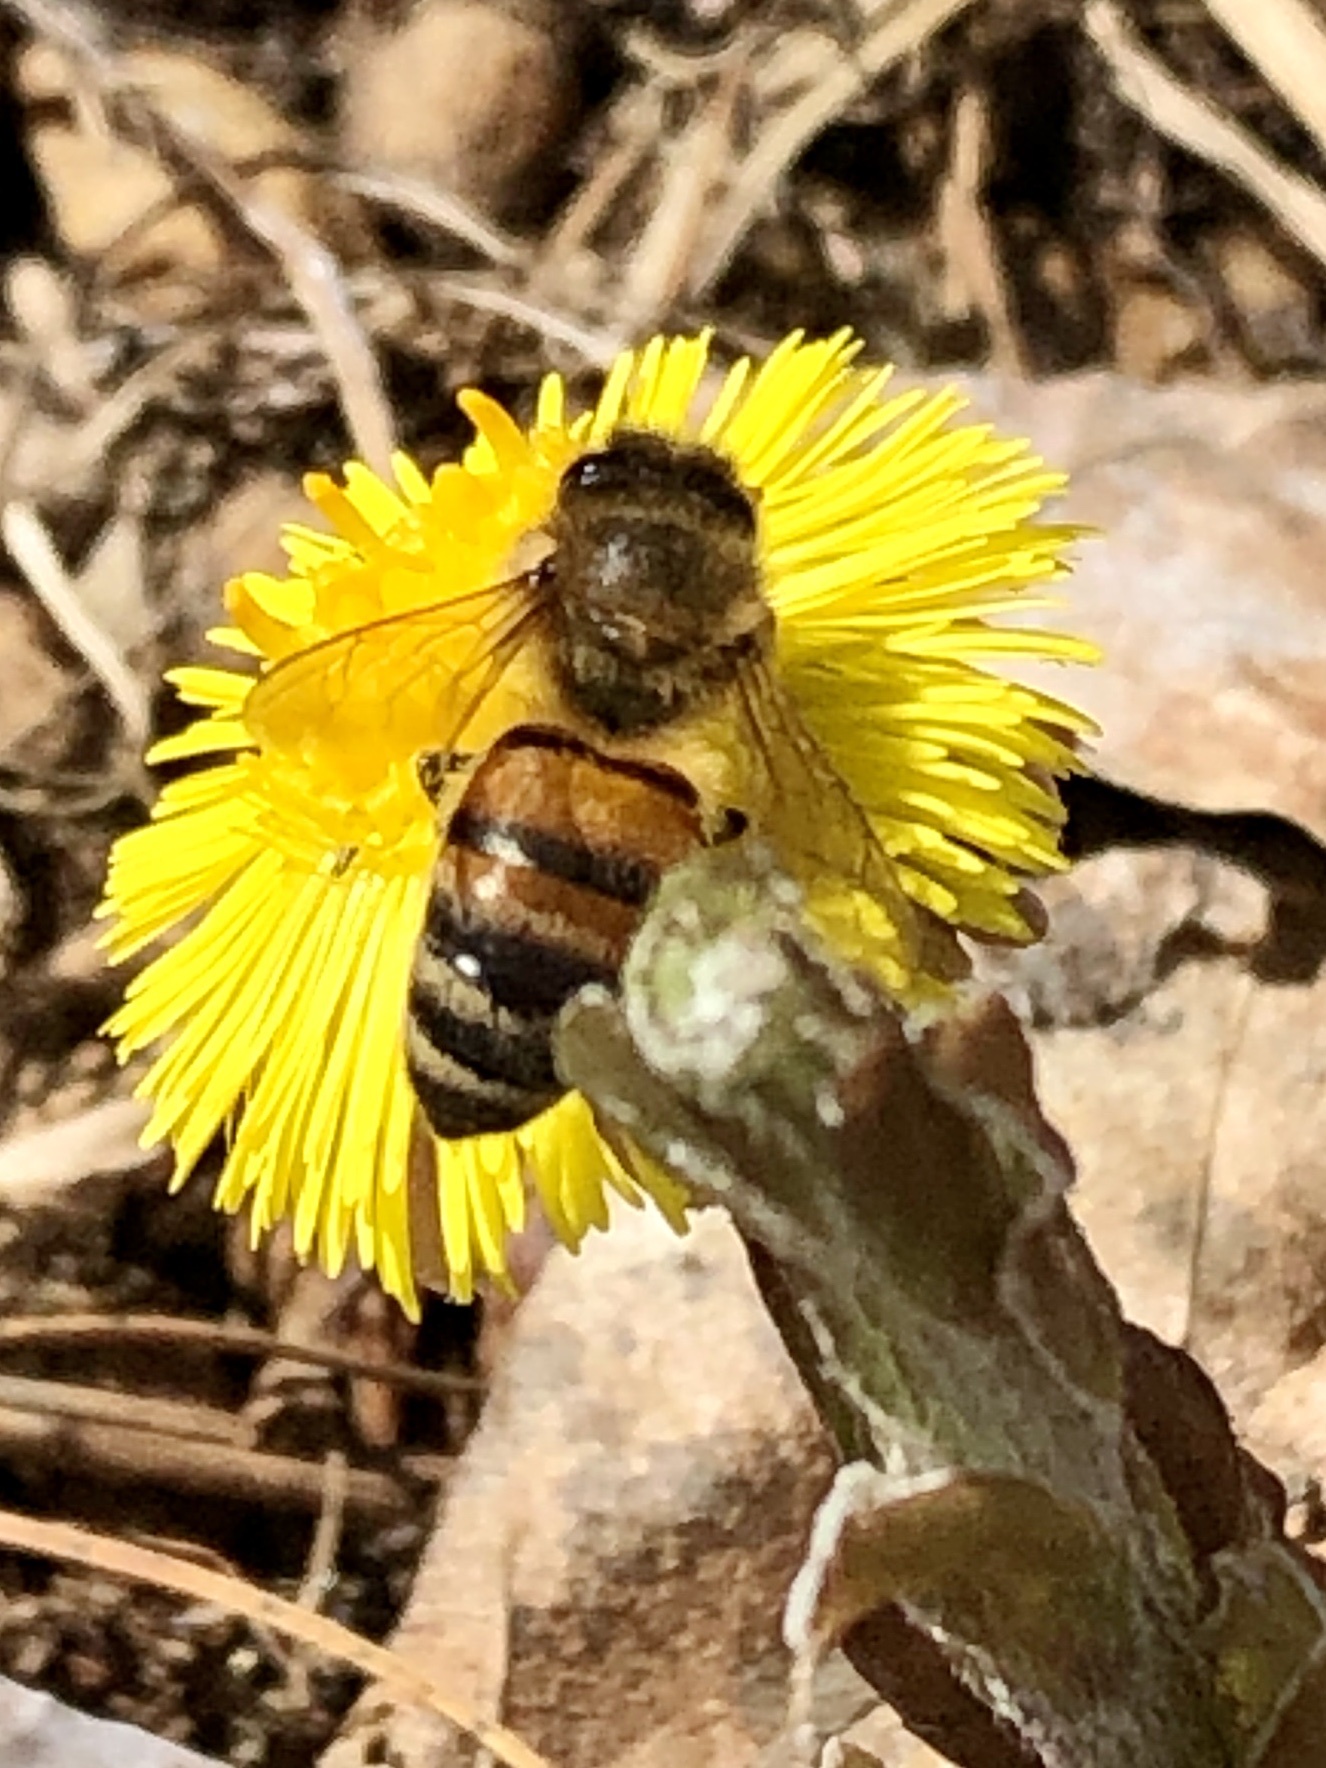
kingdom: Animalia
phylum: Arthropoda
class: Insecta
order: Hymenoptera
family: Apidae
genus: Apis
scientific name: Apis mellifera
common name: Honey bee
